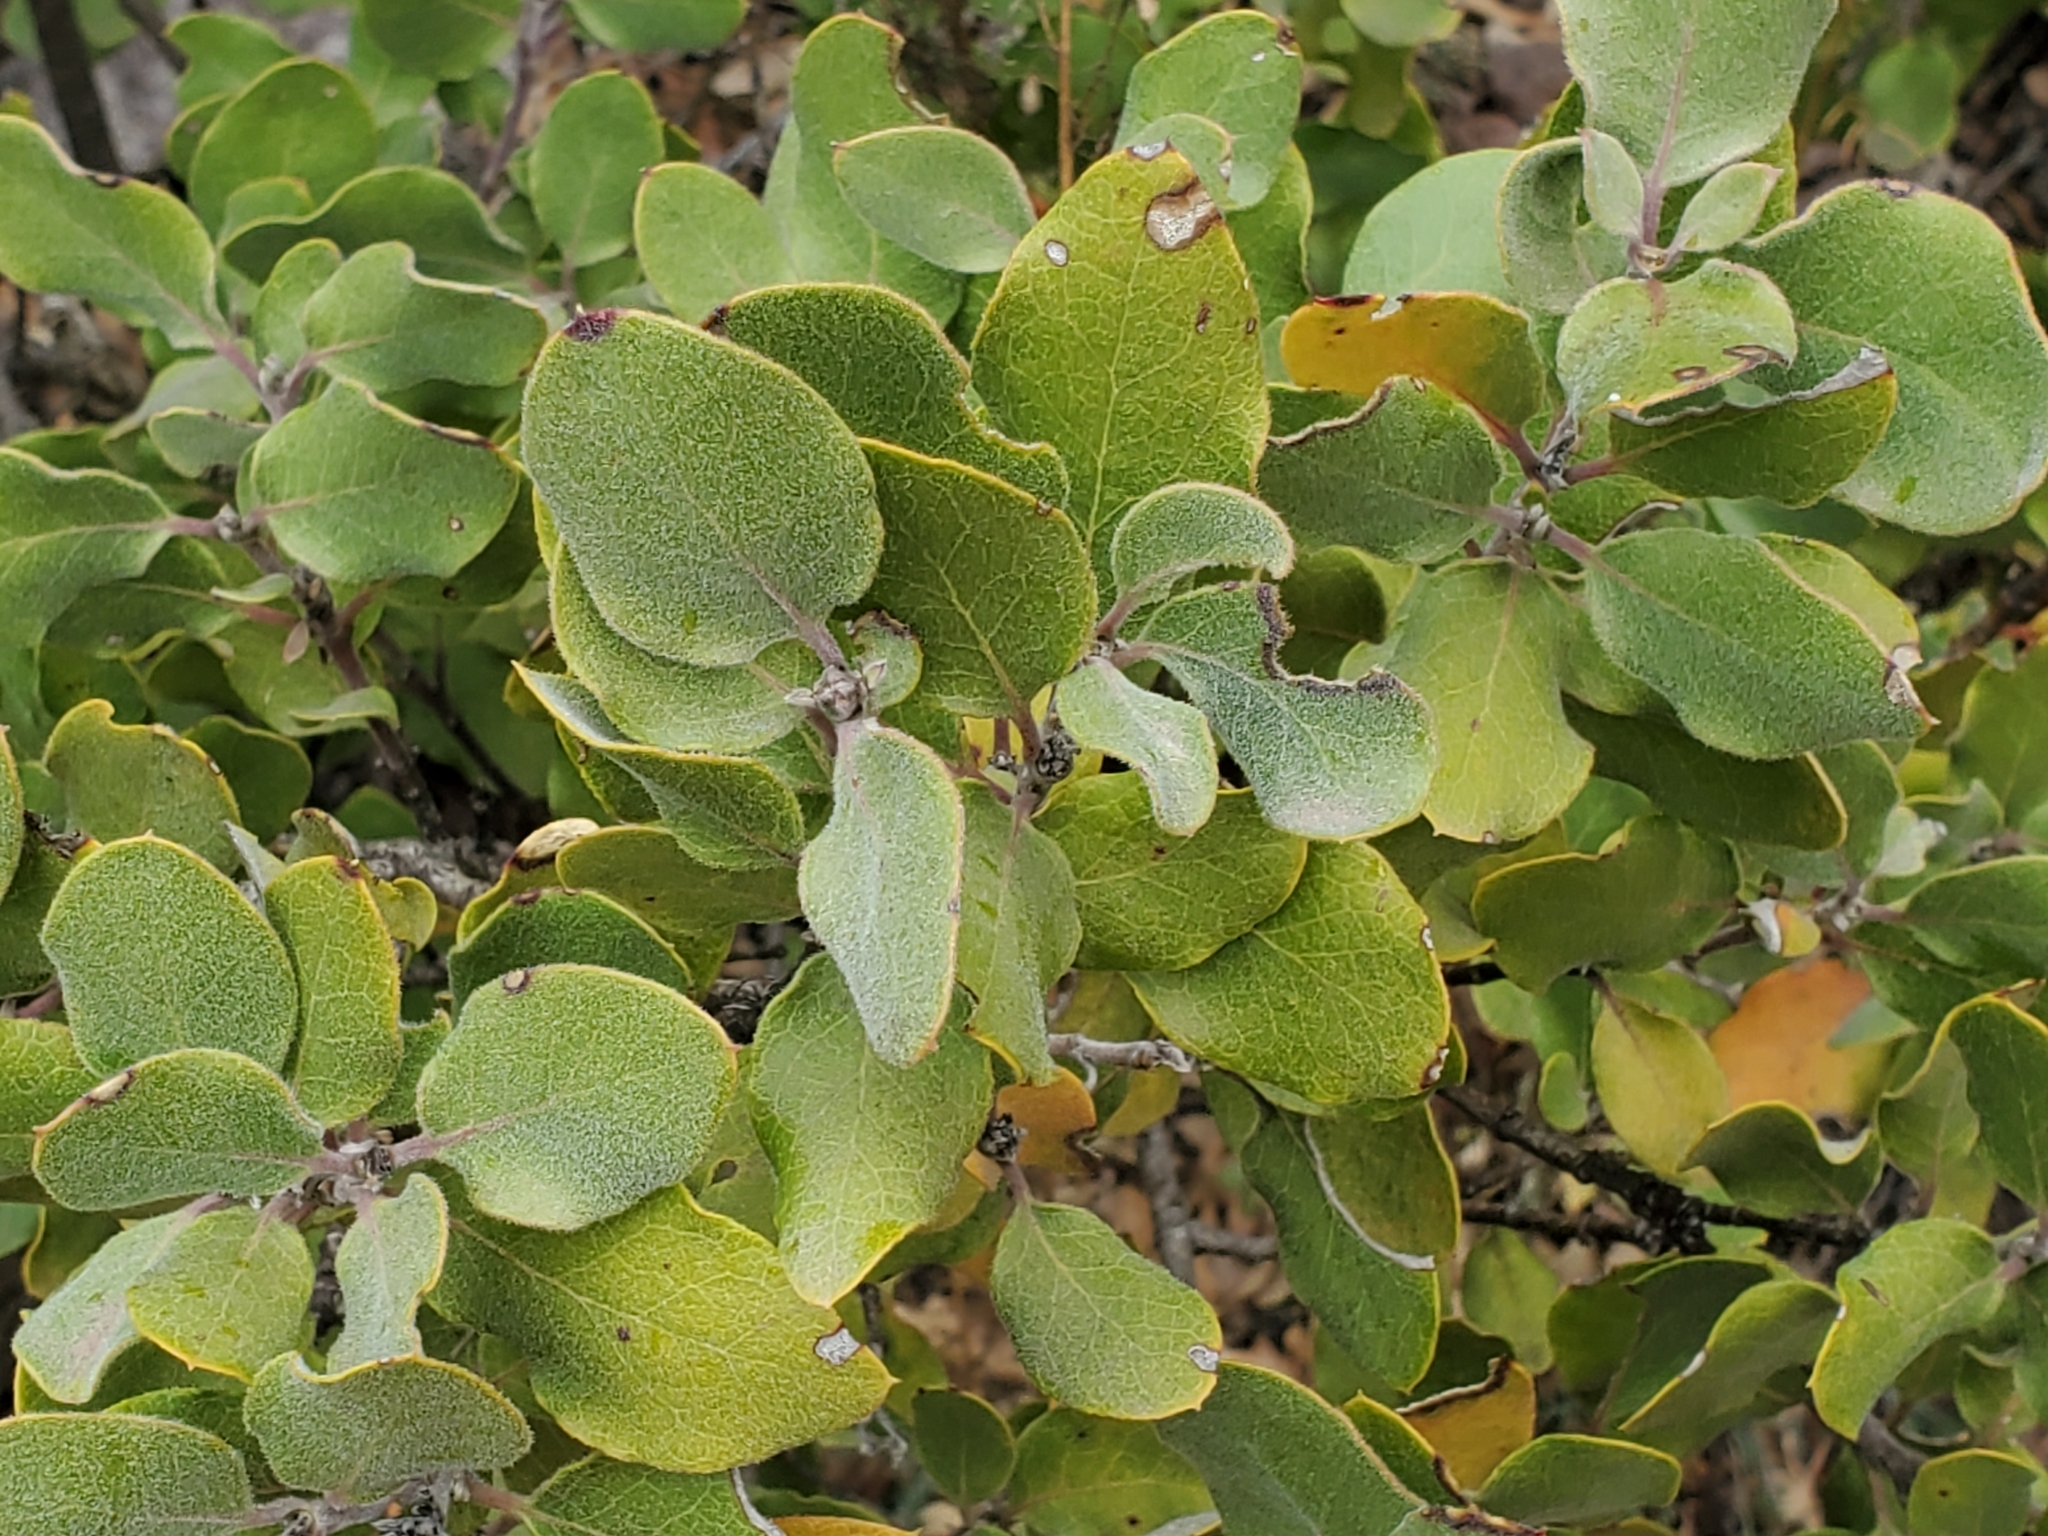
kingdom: Plantae
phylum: Tracheophyta
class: Magnoliopsida
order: Garryales
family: Garryaceae
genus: Garrya
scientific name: Garrya lindheimeri
